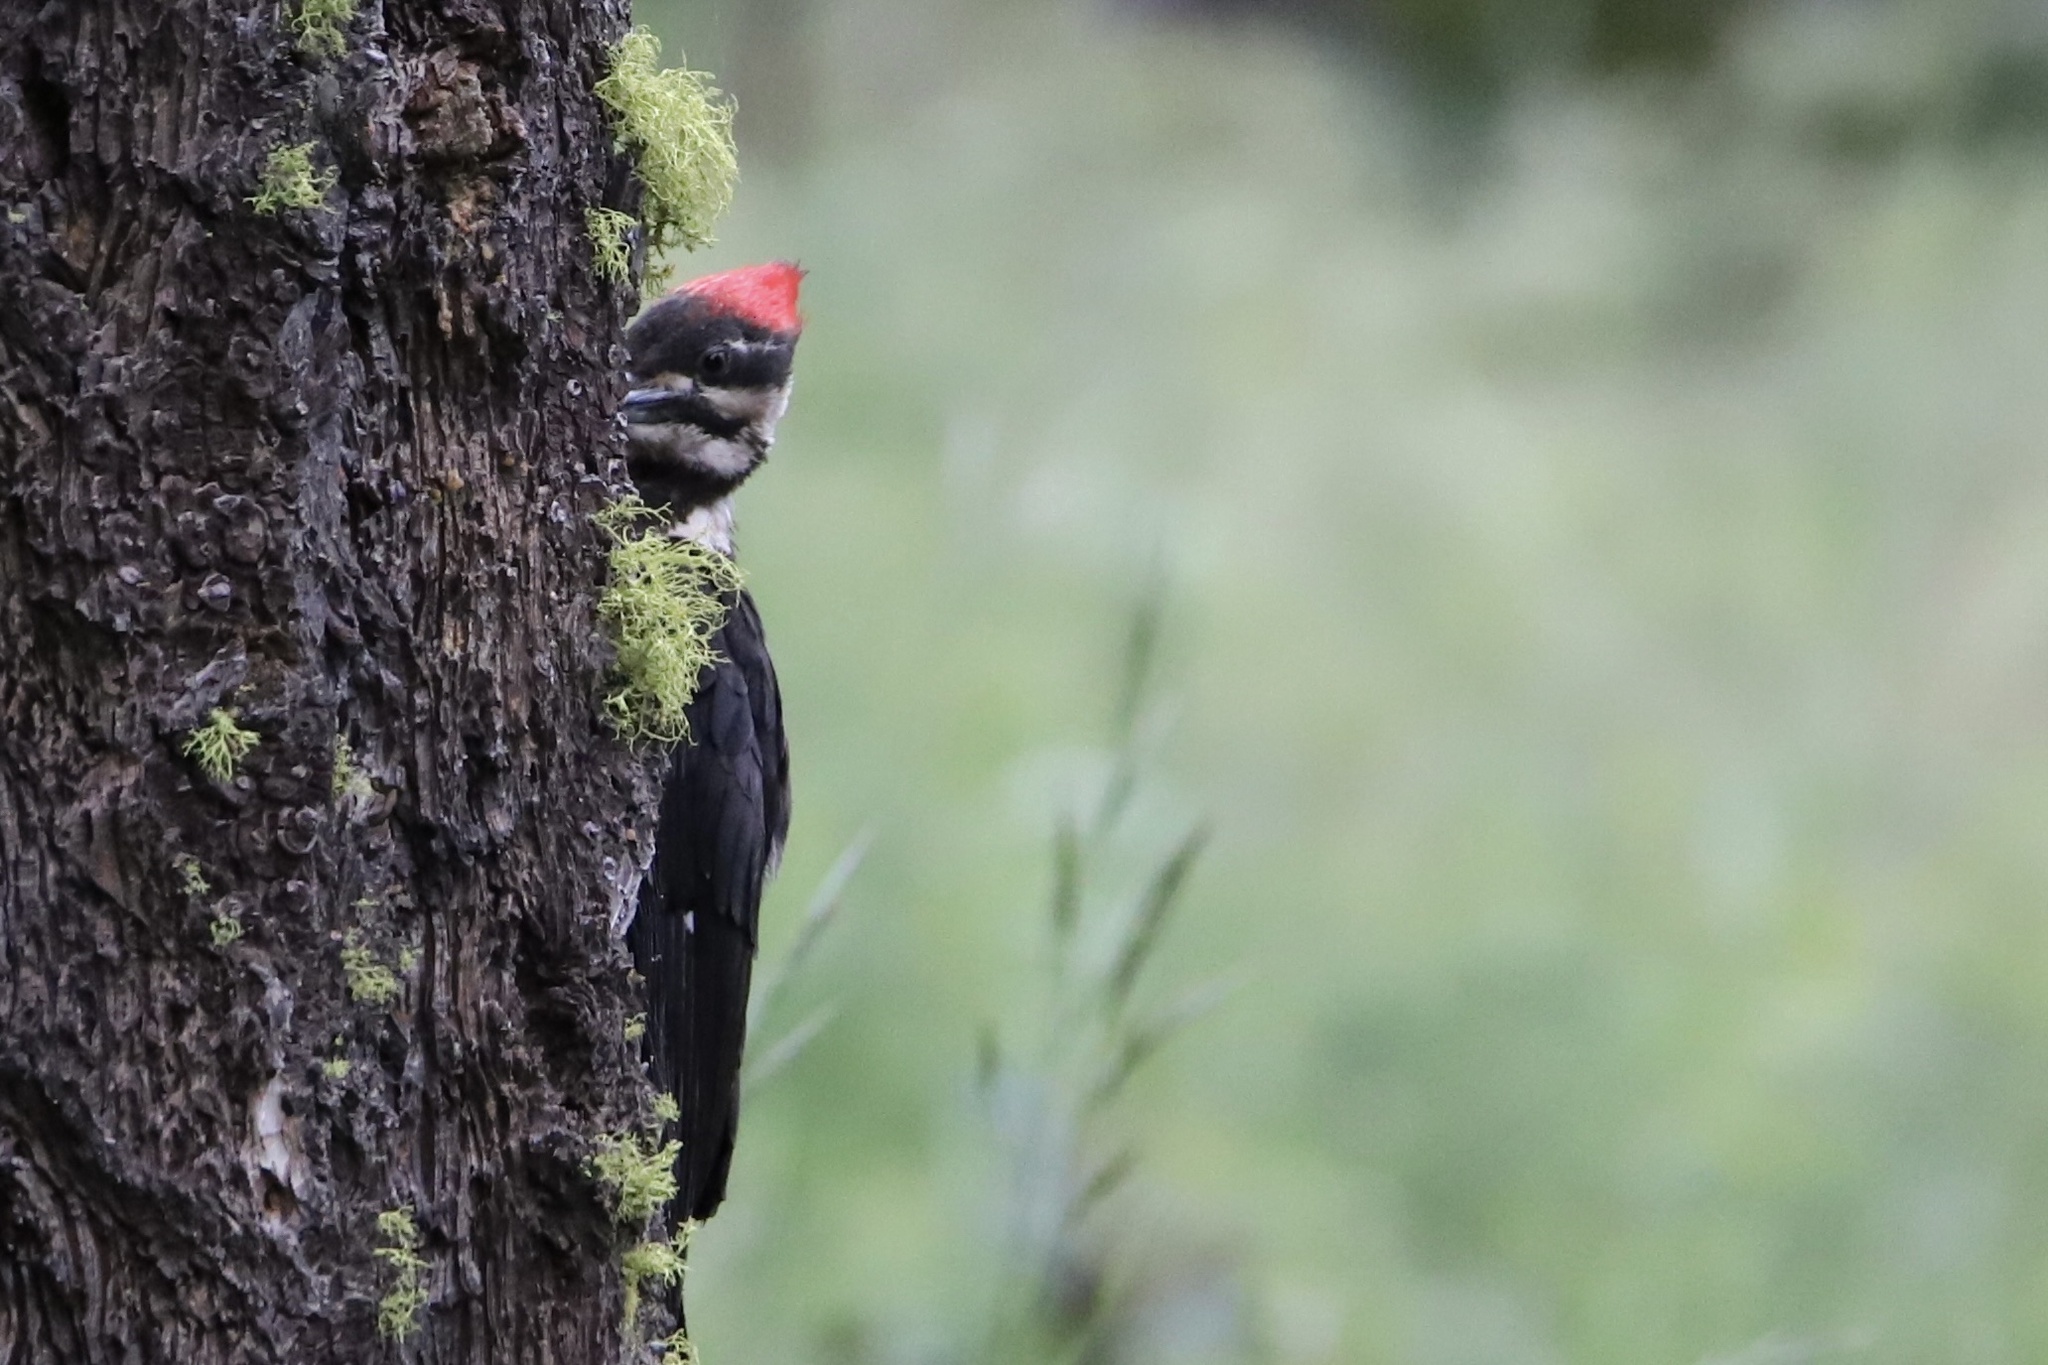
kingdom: Animalia
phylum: Chordata
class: Aves
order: Piciformes
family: Picidae
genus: Dryocopus
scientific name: Dryocopus pileatus
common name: Pileated woodpecker
